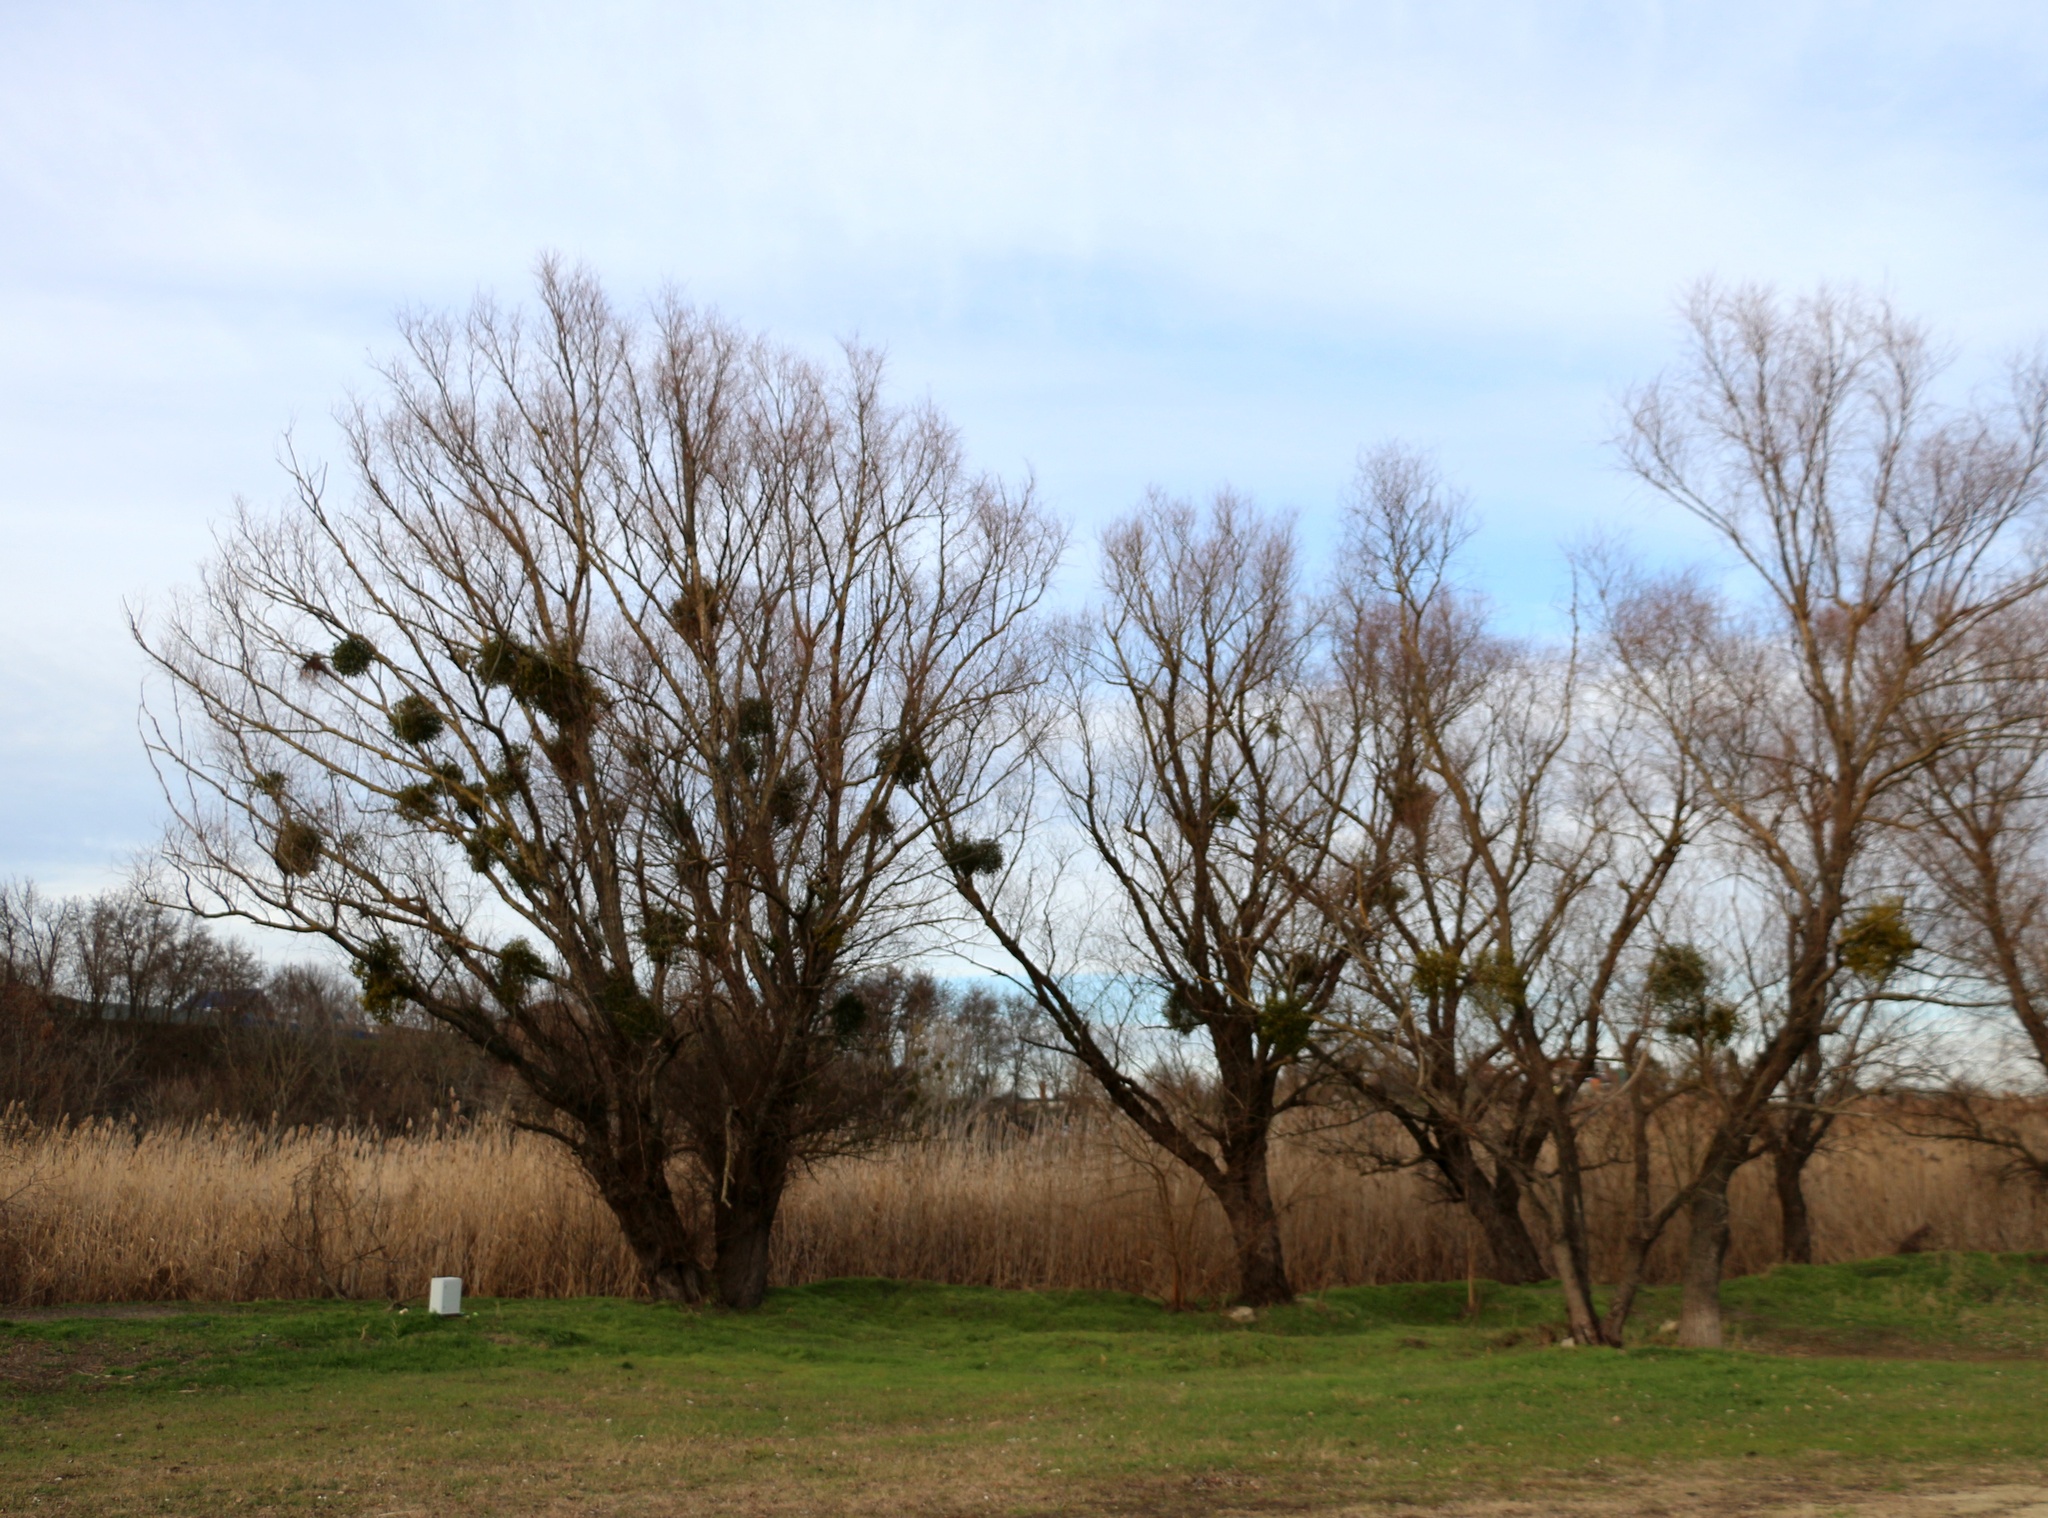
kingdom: Plantae
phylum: Tracheophyta
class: Magnoliopsida
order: Santalales
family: Viscaceae
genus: Viscum
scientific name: Viscum album
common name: Mistletoe
